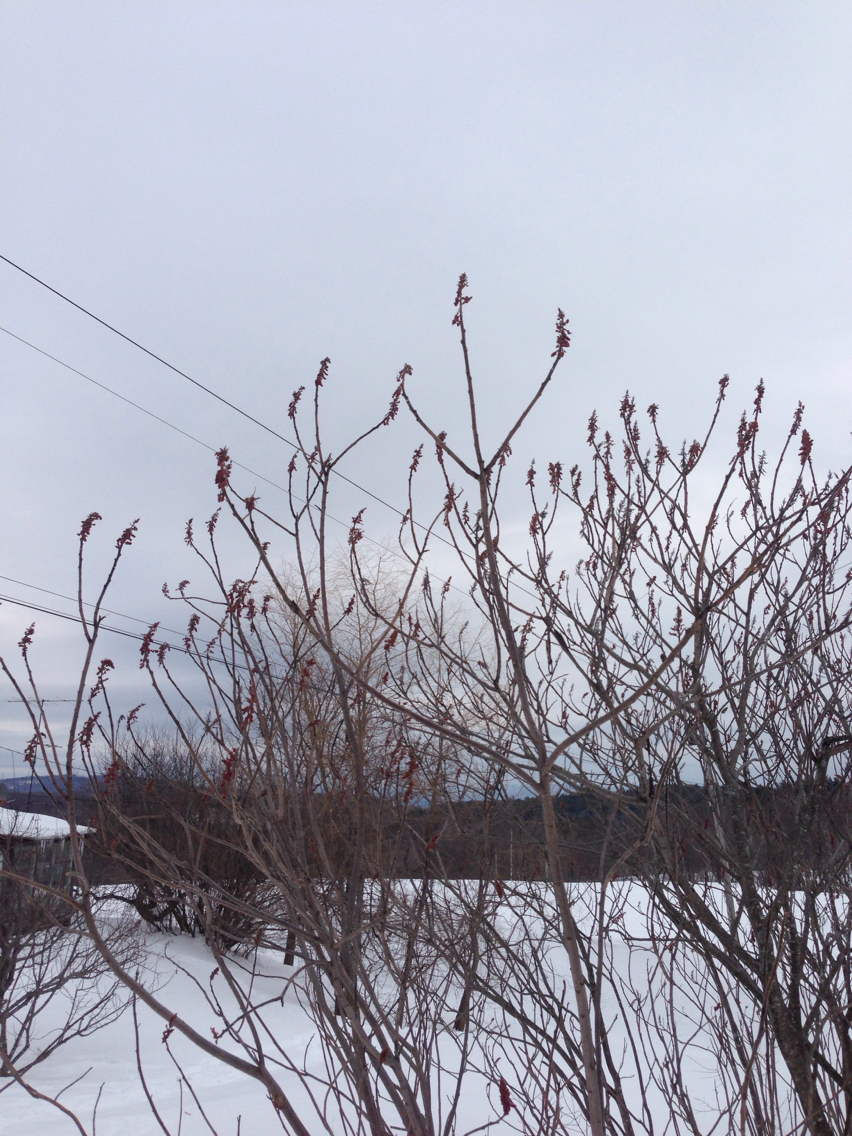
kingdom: Plantae
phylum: Tracheophyta
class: Magnoliopsida
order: Sapindales
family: Anacardiaceae
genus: Rhus
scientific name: Rhus typhina
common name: Staghorn sumac
